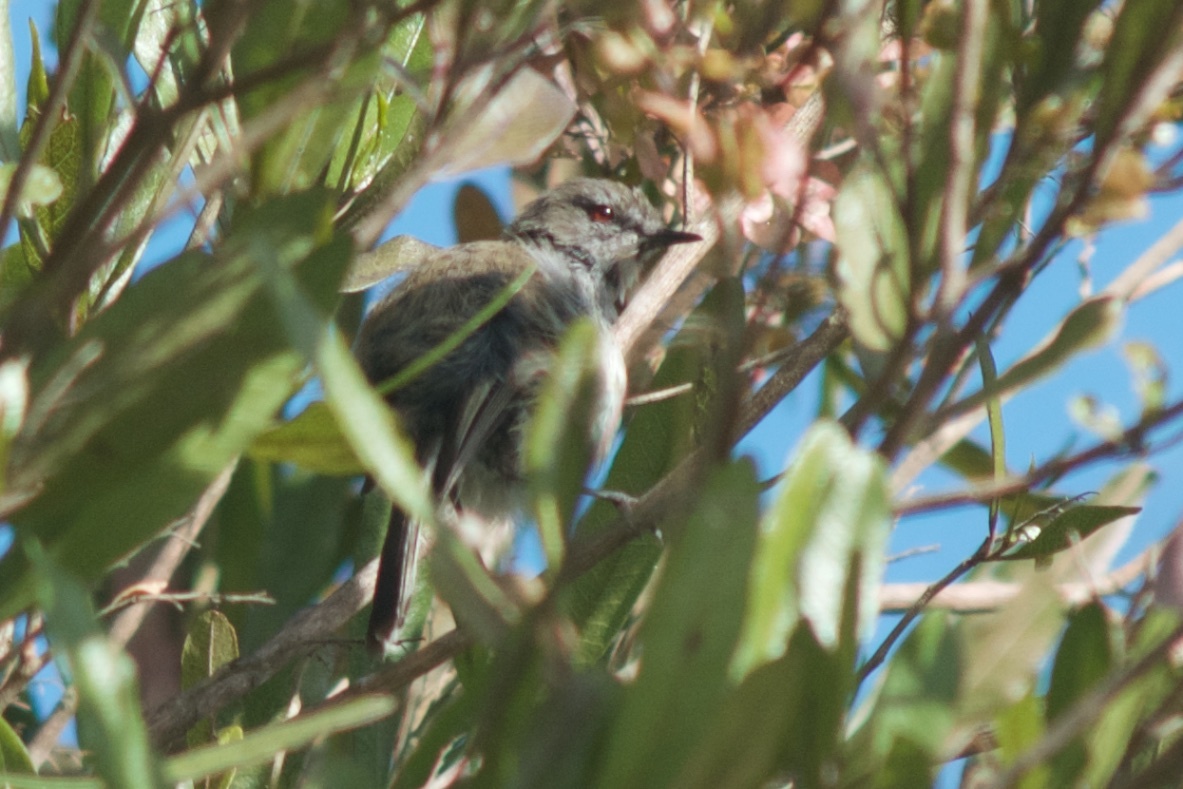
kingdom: Animalia
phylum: Chordata
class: Aves
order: Passeriformes
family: Acanthizidae
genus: Gerygone
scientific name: Gerygone igata
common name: Grey gerygone
